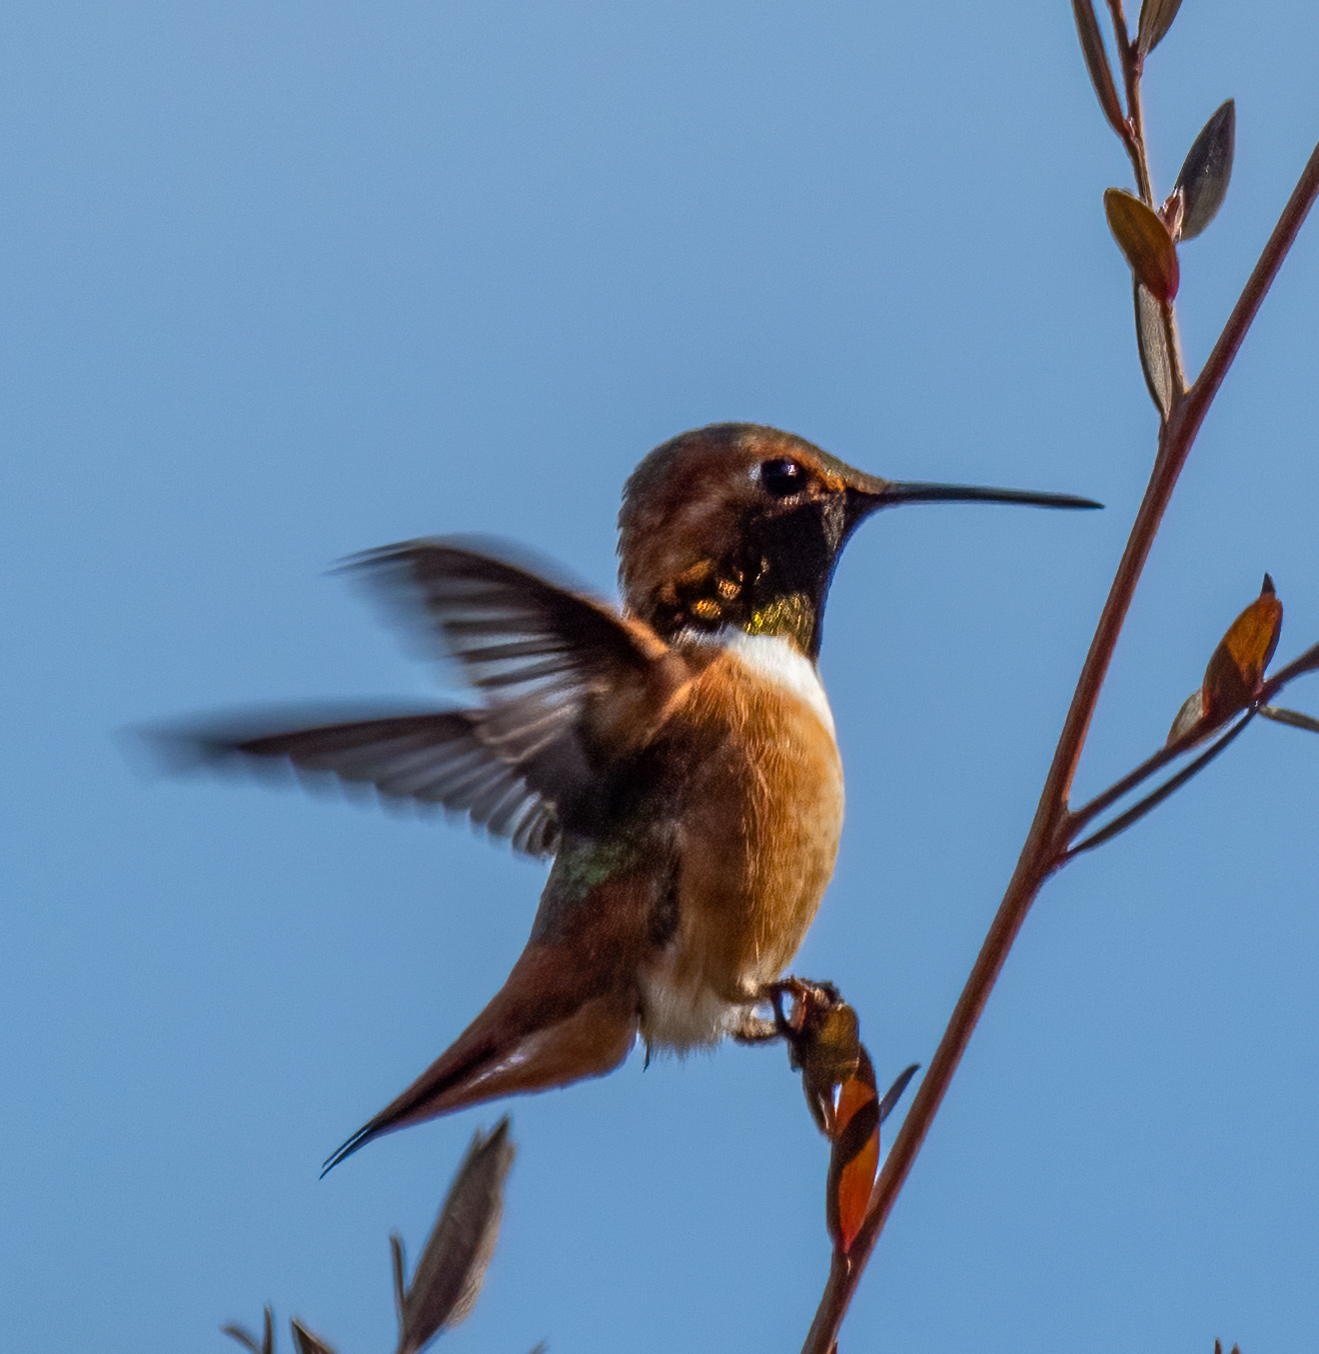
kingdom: Animalia
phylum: Chordata
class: Aves
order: Apodiformes
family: Trochilidae
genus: Selasphorus
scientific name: Selasphorus sasin
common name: Allen's hummingbird
